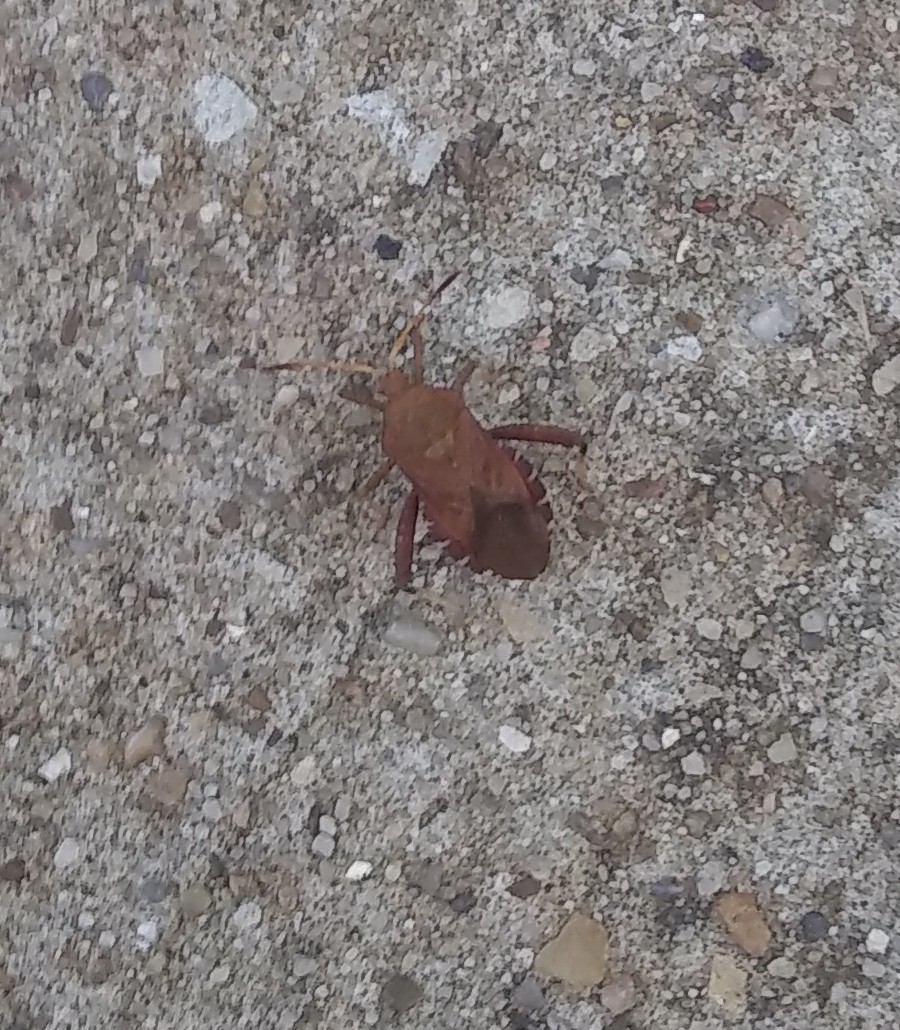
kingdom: Animalia
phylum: Arthropoda
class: Insecta
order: Hemiptera
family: Coreidae
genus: Euthochtha
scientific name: Euthochtha galeator
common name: Helmeted squash bug
